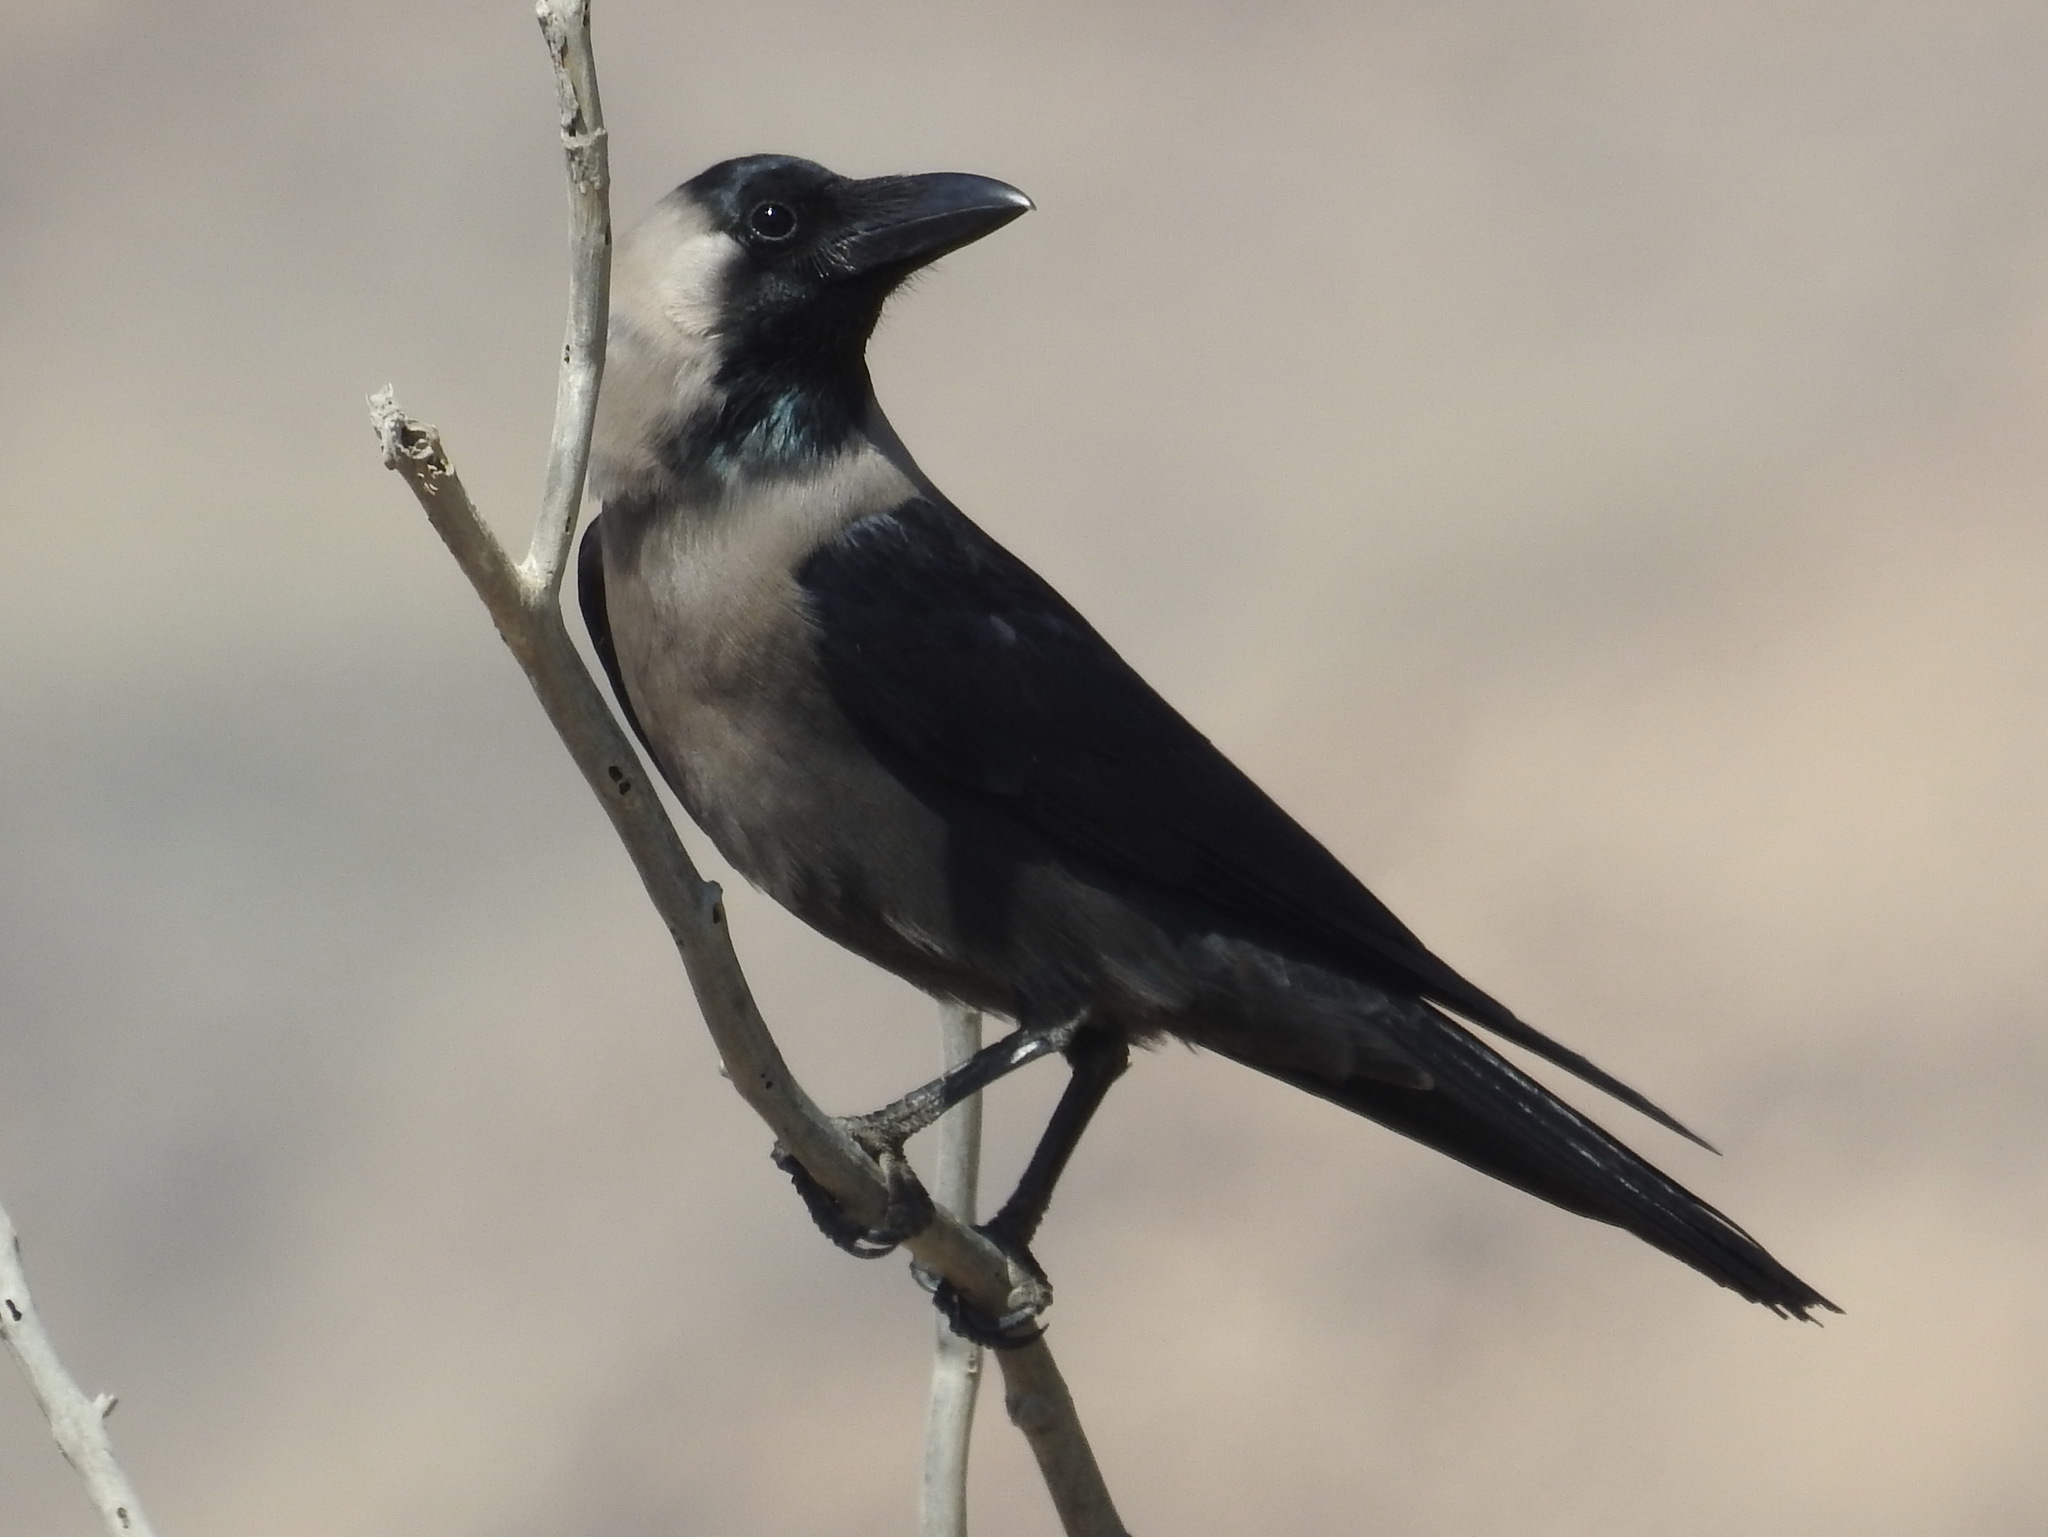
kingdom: Animalia
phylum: Chordata
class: Aves
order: Passeriformes
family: Corvidae
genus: Corvus
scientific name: Corvus splendens
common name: House crow
